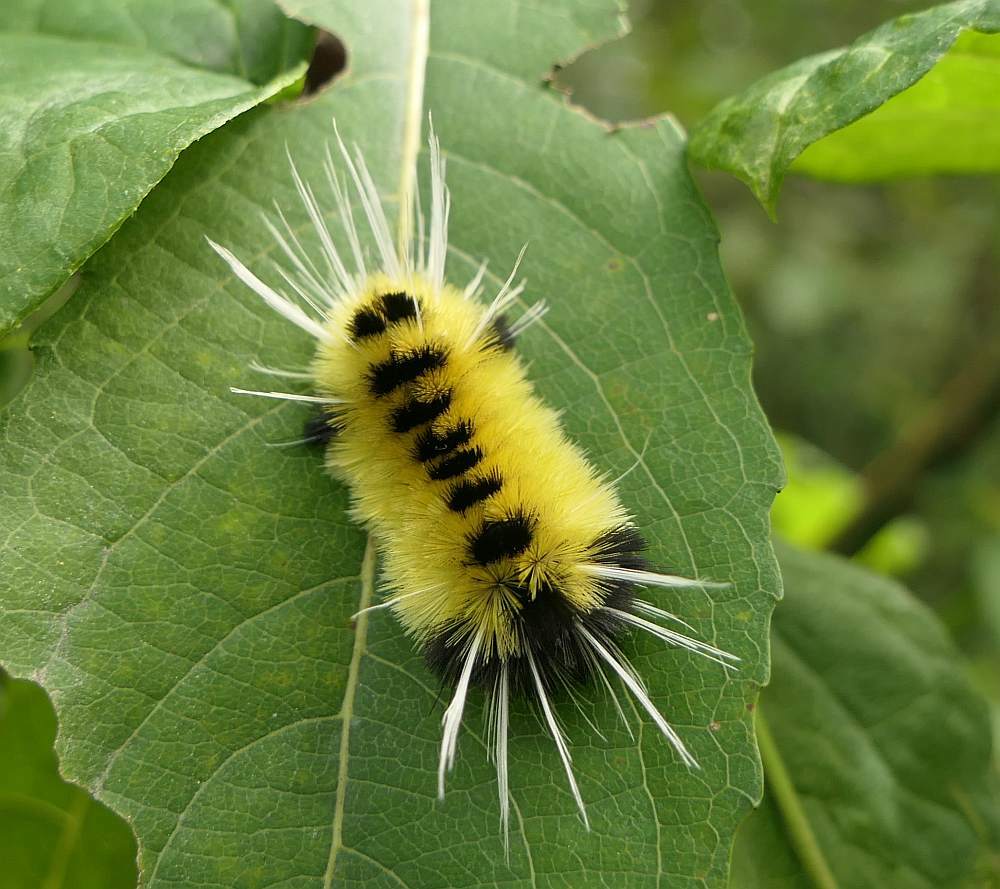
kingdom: Animalia
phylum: Arthropoda
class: Insecta
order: Lepidoptera
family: Erebidae
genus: Lophocampa
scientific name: Lophocampa maculata
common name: Spotted tussock moth
